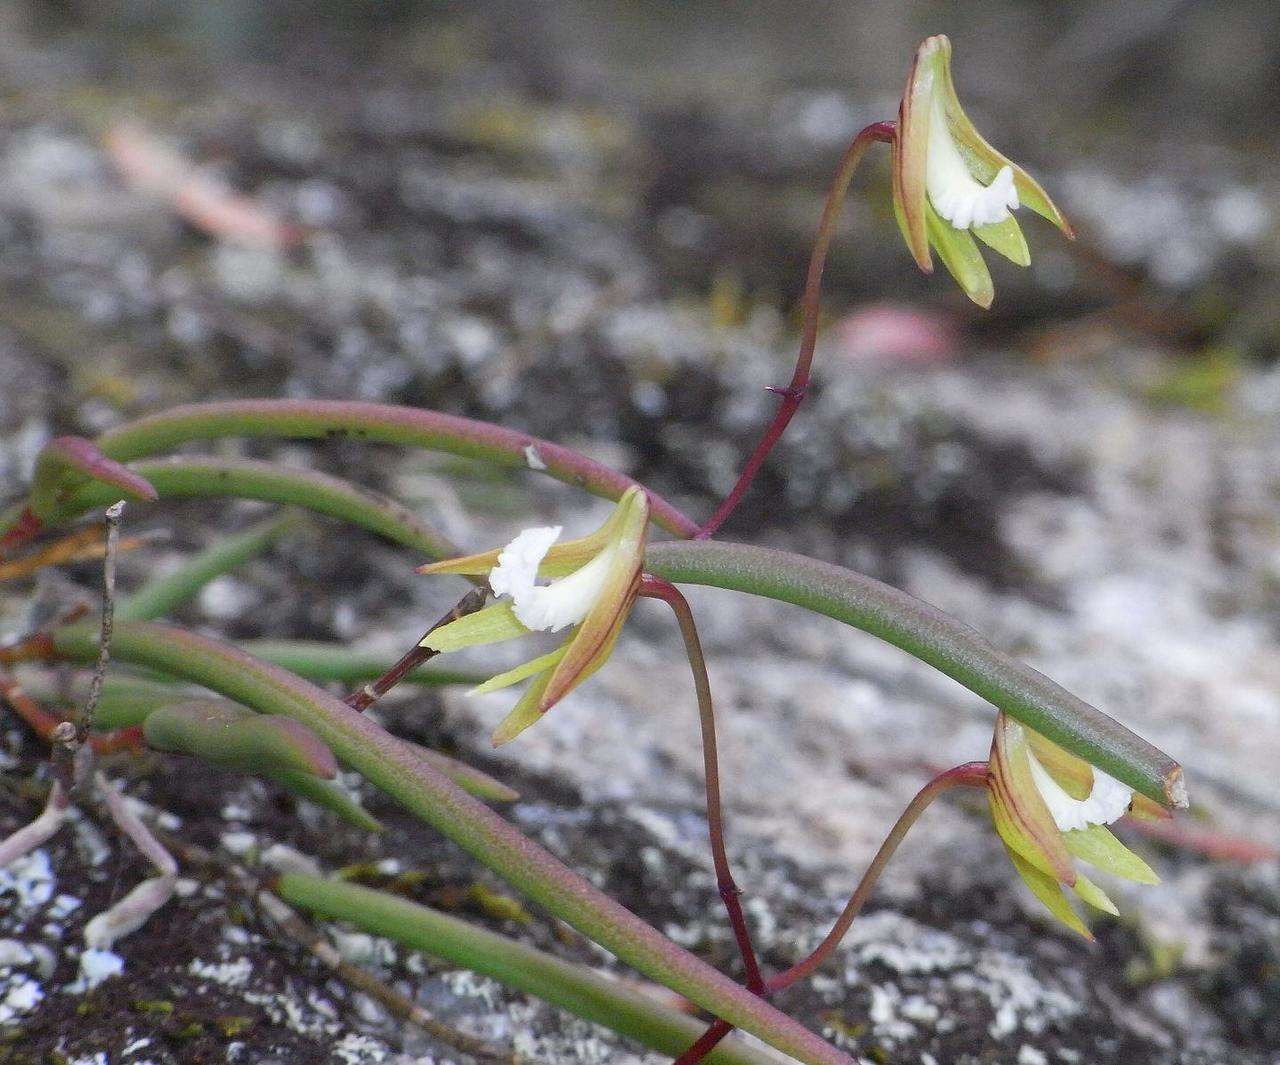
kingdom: Plantae
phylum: Tracheophyta
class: Liliopsida
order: Asparagales
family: Orchidaceae
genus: Dendrobium
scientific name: Dendrobium striolatum
